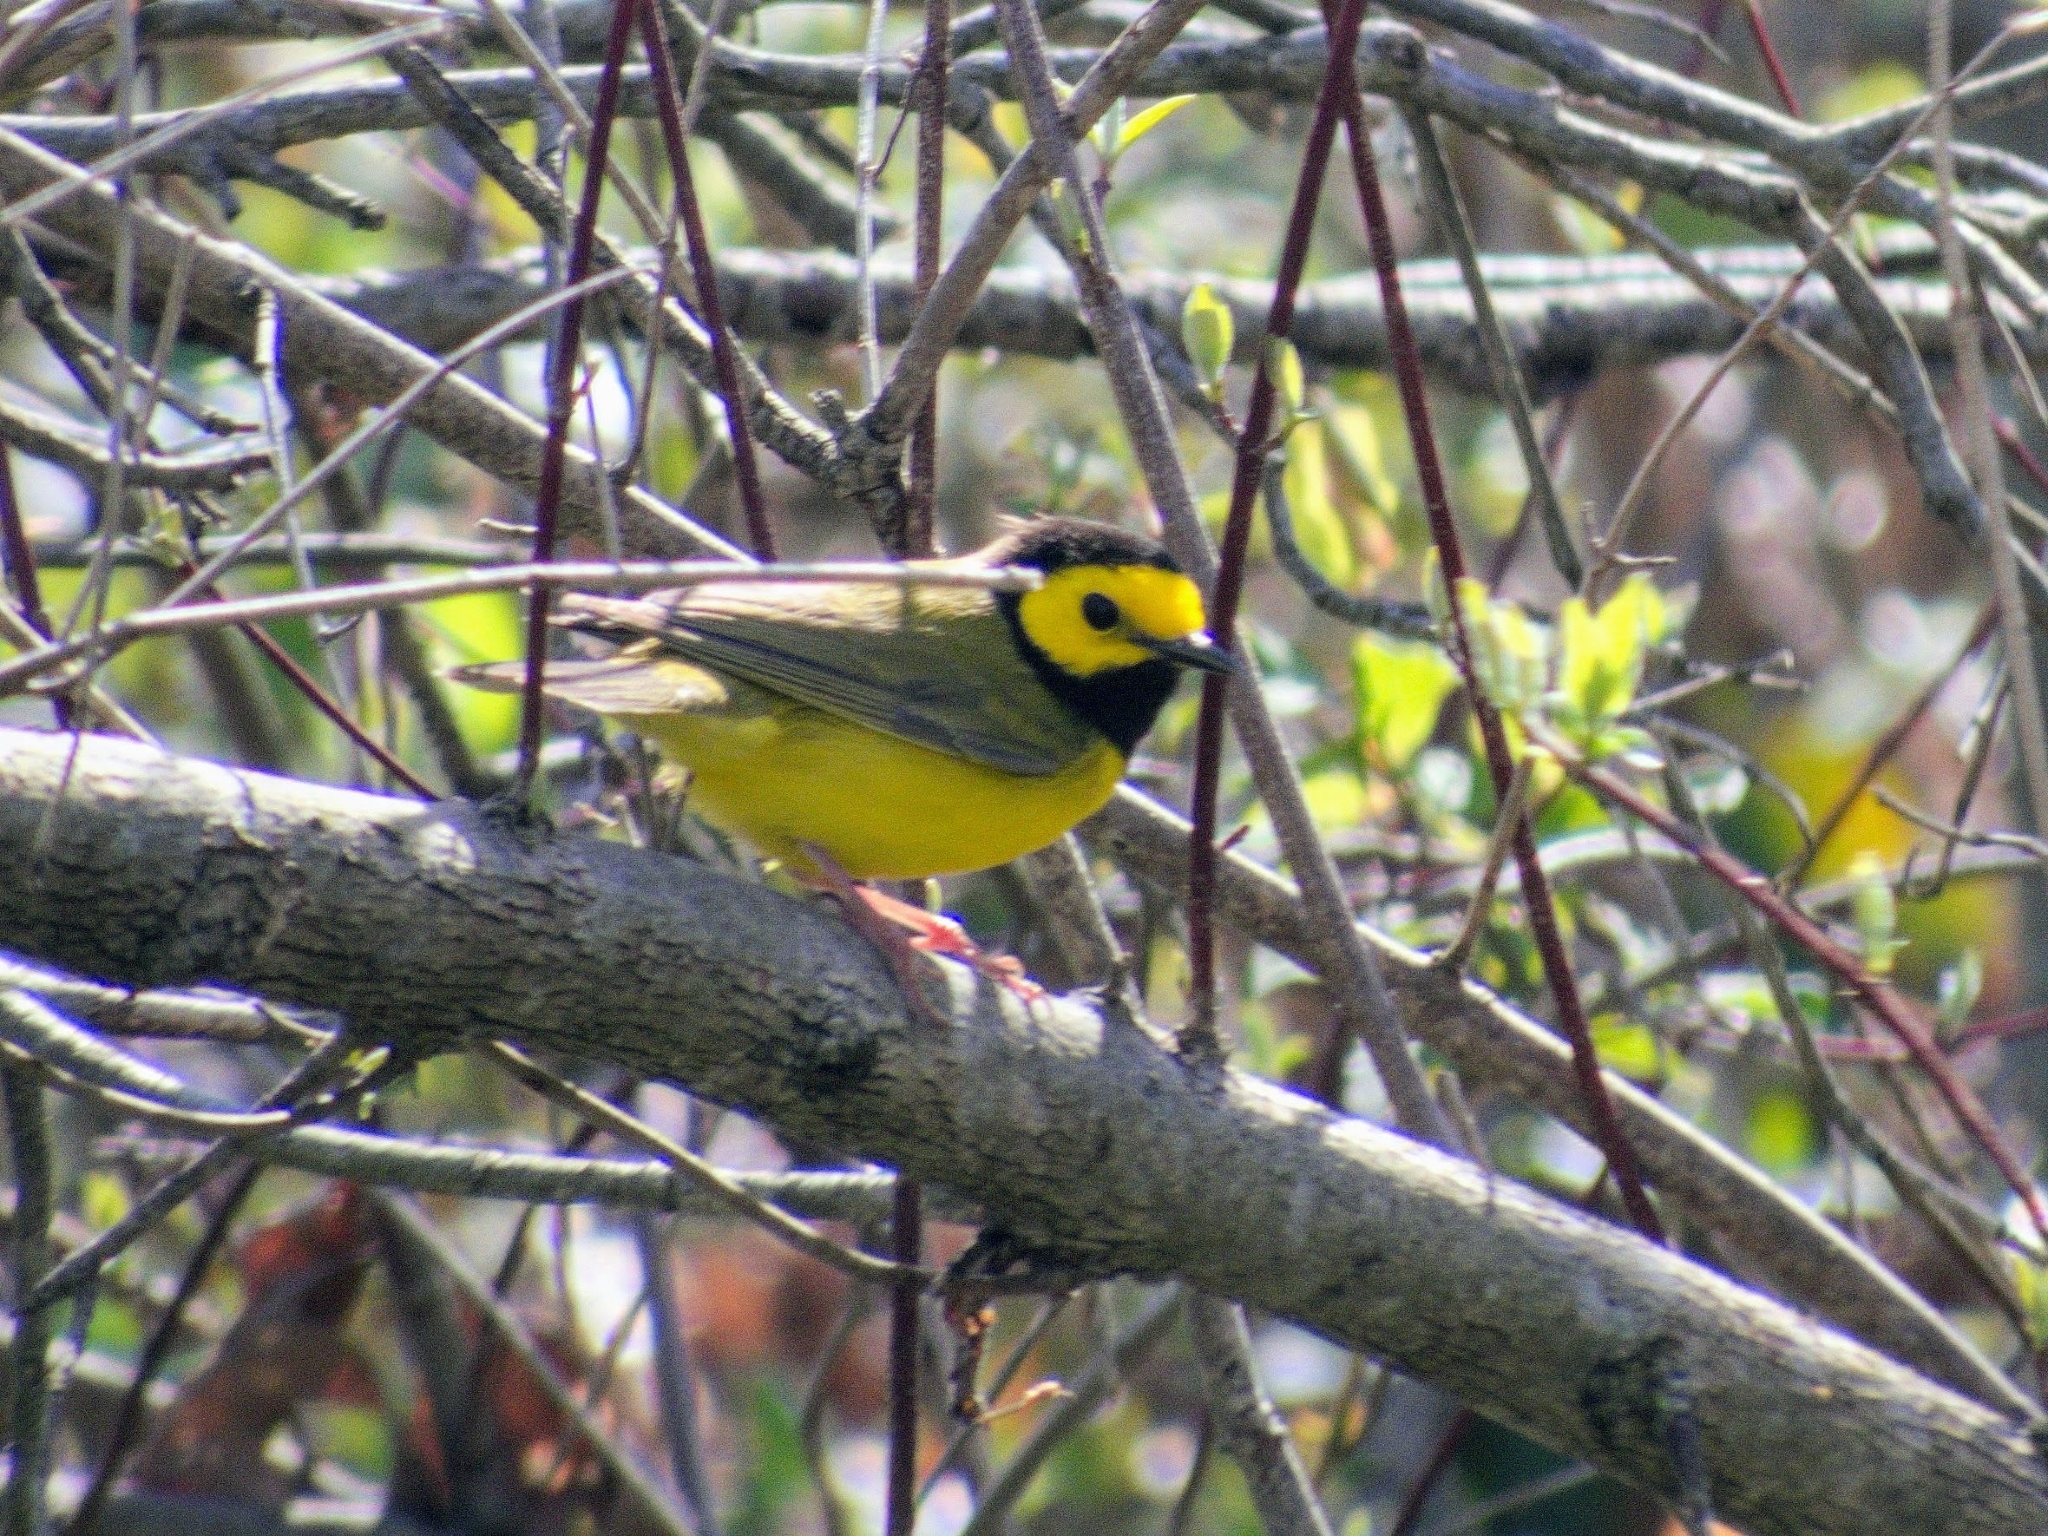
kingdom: Animalia
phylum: Chordata
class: Aves
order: Passeriformes
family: Parulidae
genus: Setophaga
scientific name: Setophaga citrina
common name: Hooded warbler
